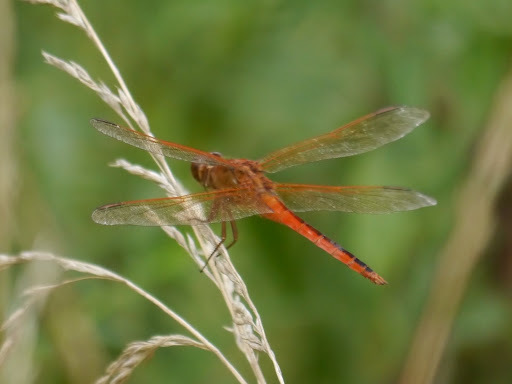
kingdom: Animalia
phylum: Arthropoda
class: Insecta
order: Odonata
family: Libellulidae
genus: Libellula
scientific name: Libellula needhami
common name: Needham's skimmer
